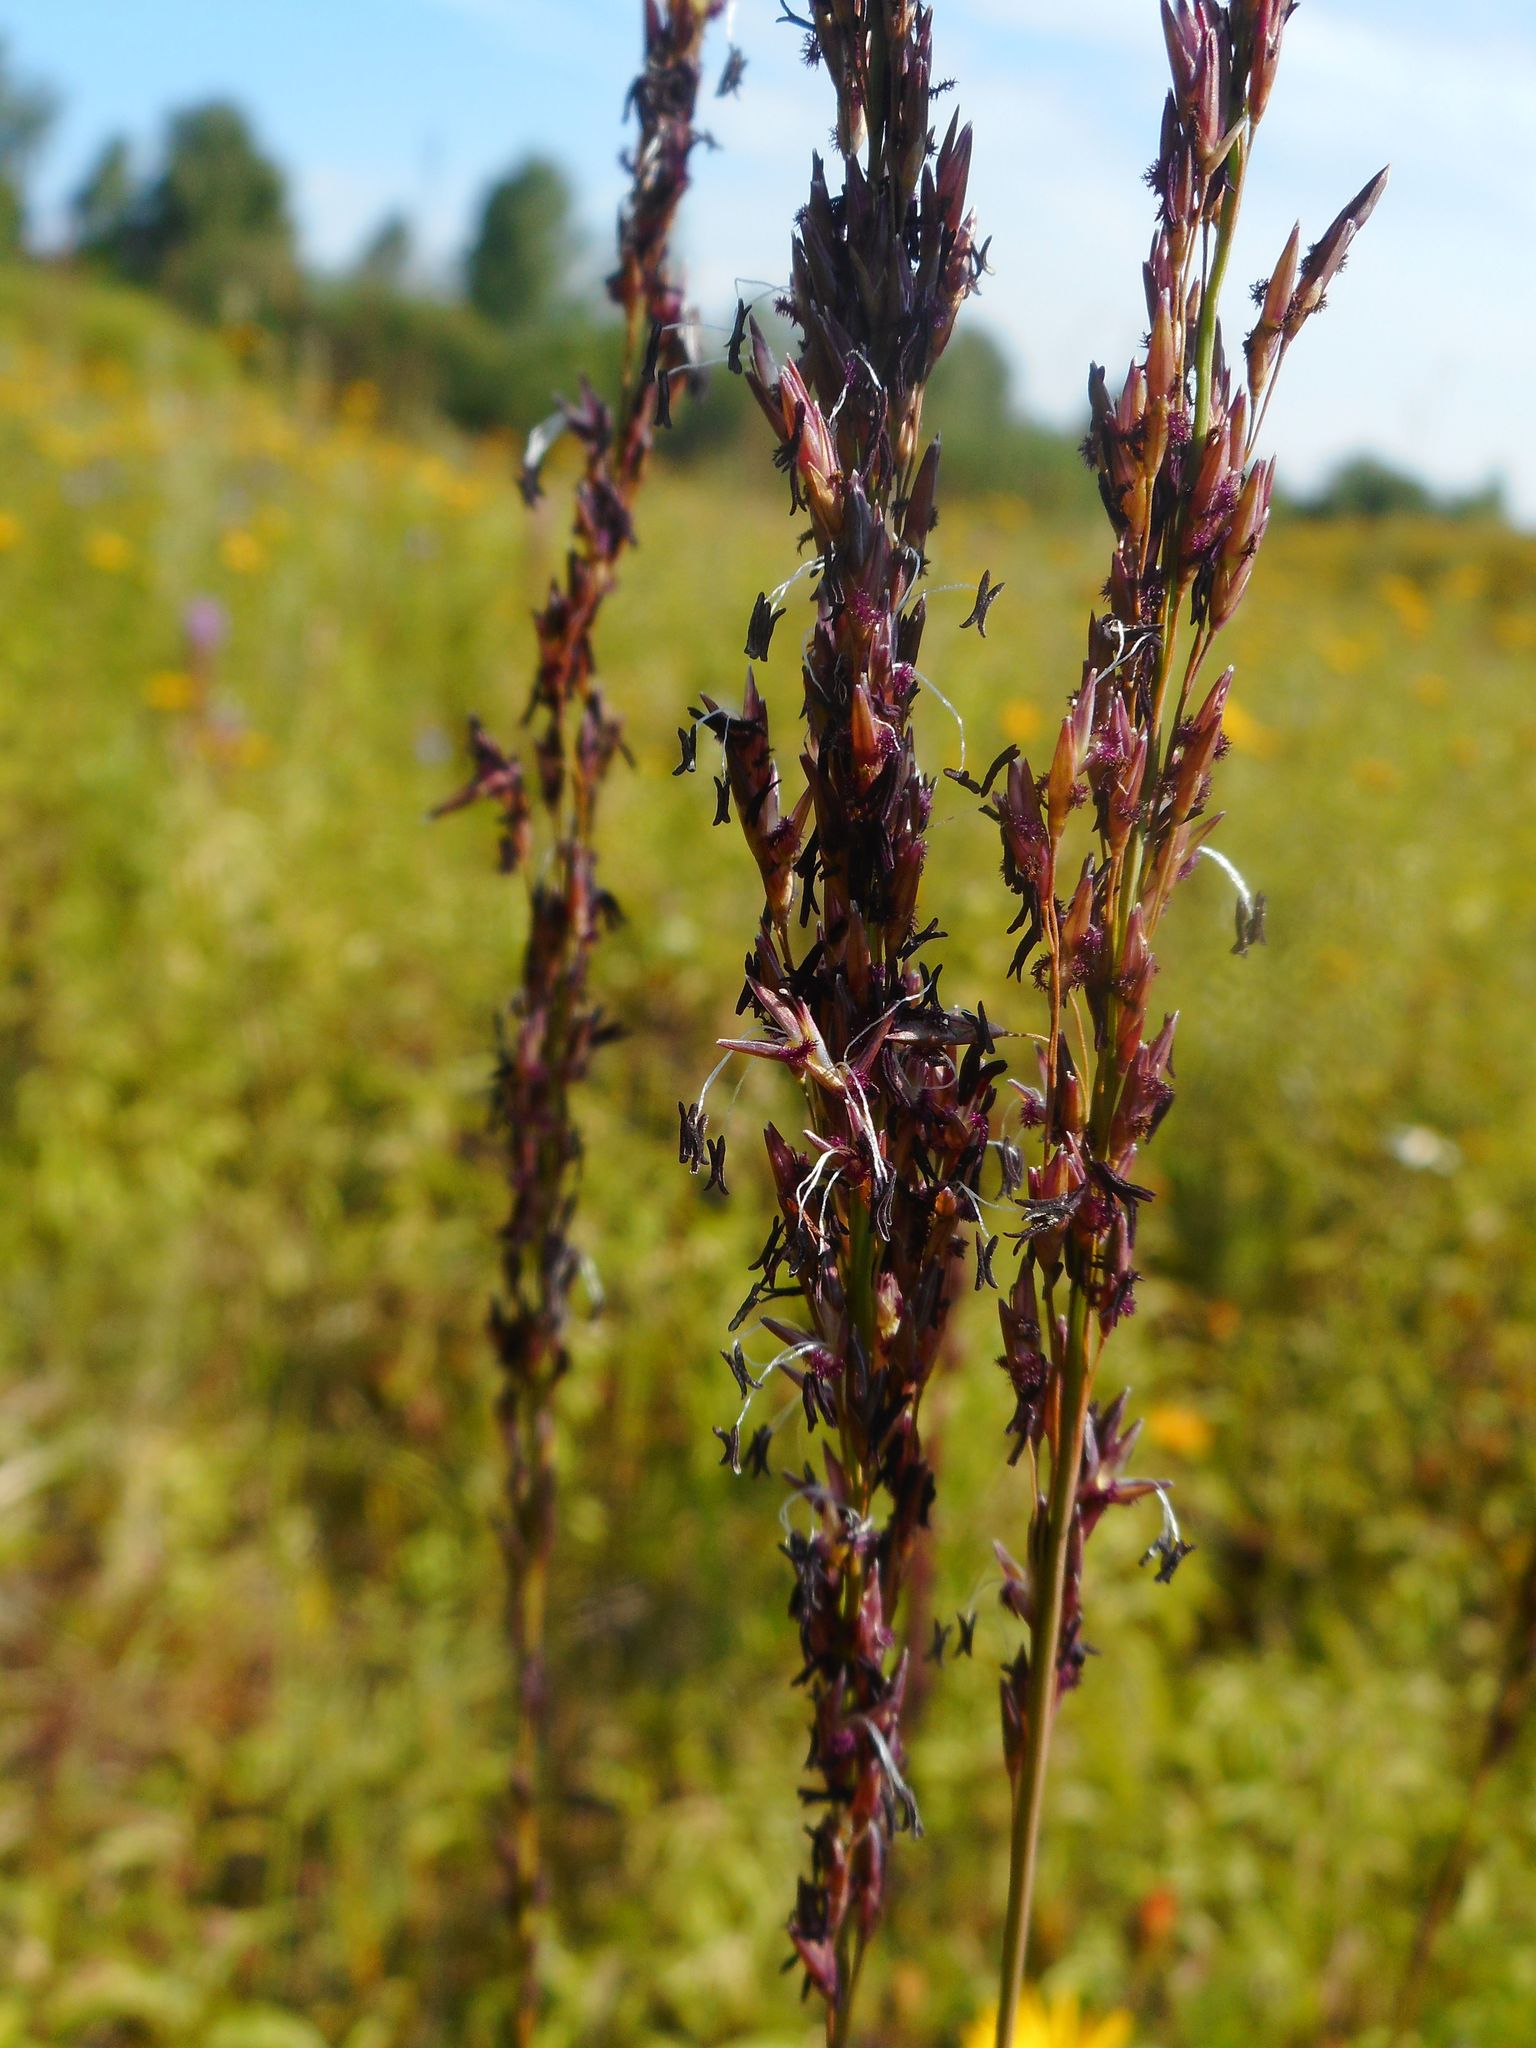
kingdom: Plantae
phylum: Tracheophyta
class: Liliopsida
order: Poales
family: Poaceae
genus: Molinia
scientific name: Molinia caerulea
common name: Purple moor-grass
